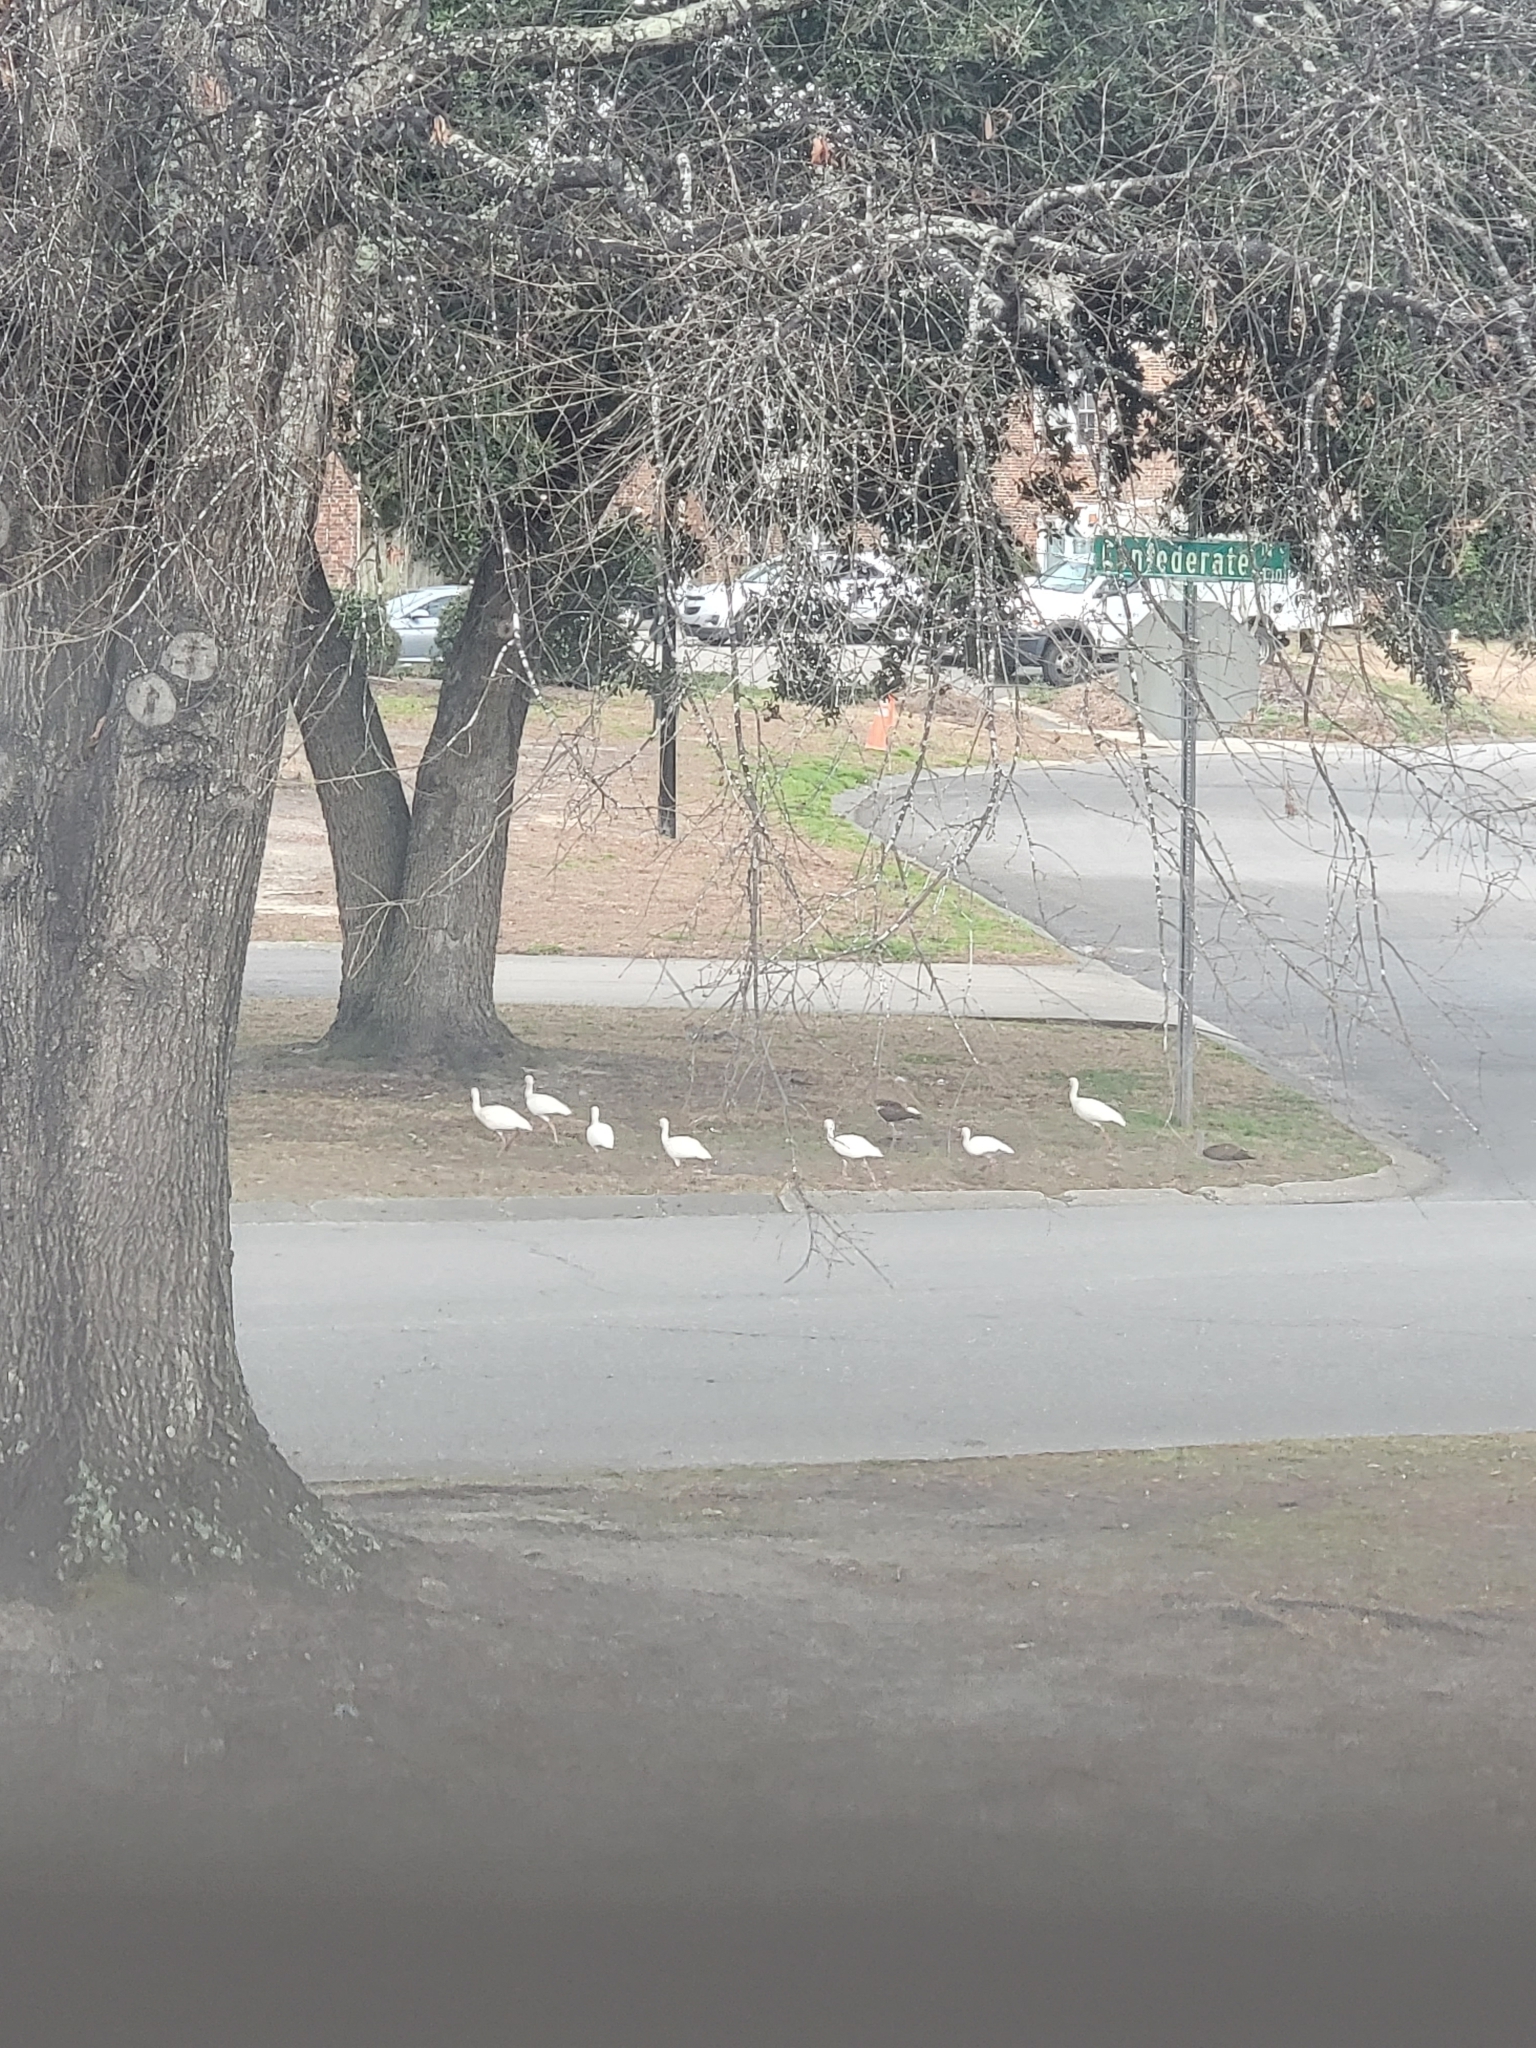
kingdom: Animalia
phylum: Chordata
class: Aves
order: Pelecaniformes
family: Threskiornithidae
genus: Eudocimus
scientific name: Eudocimus albus
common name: White ibis
